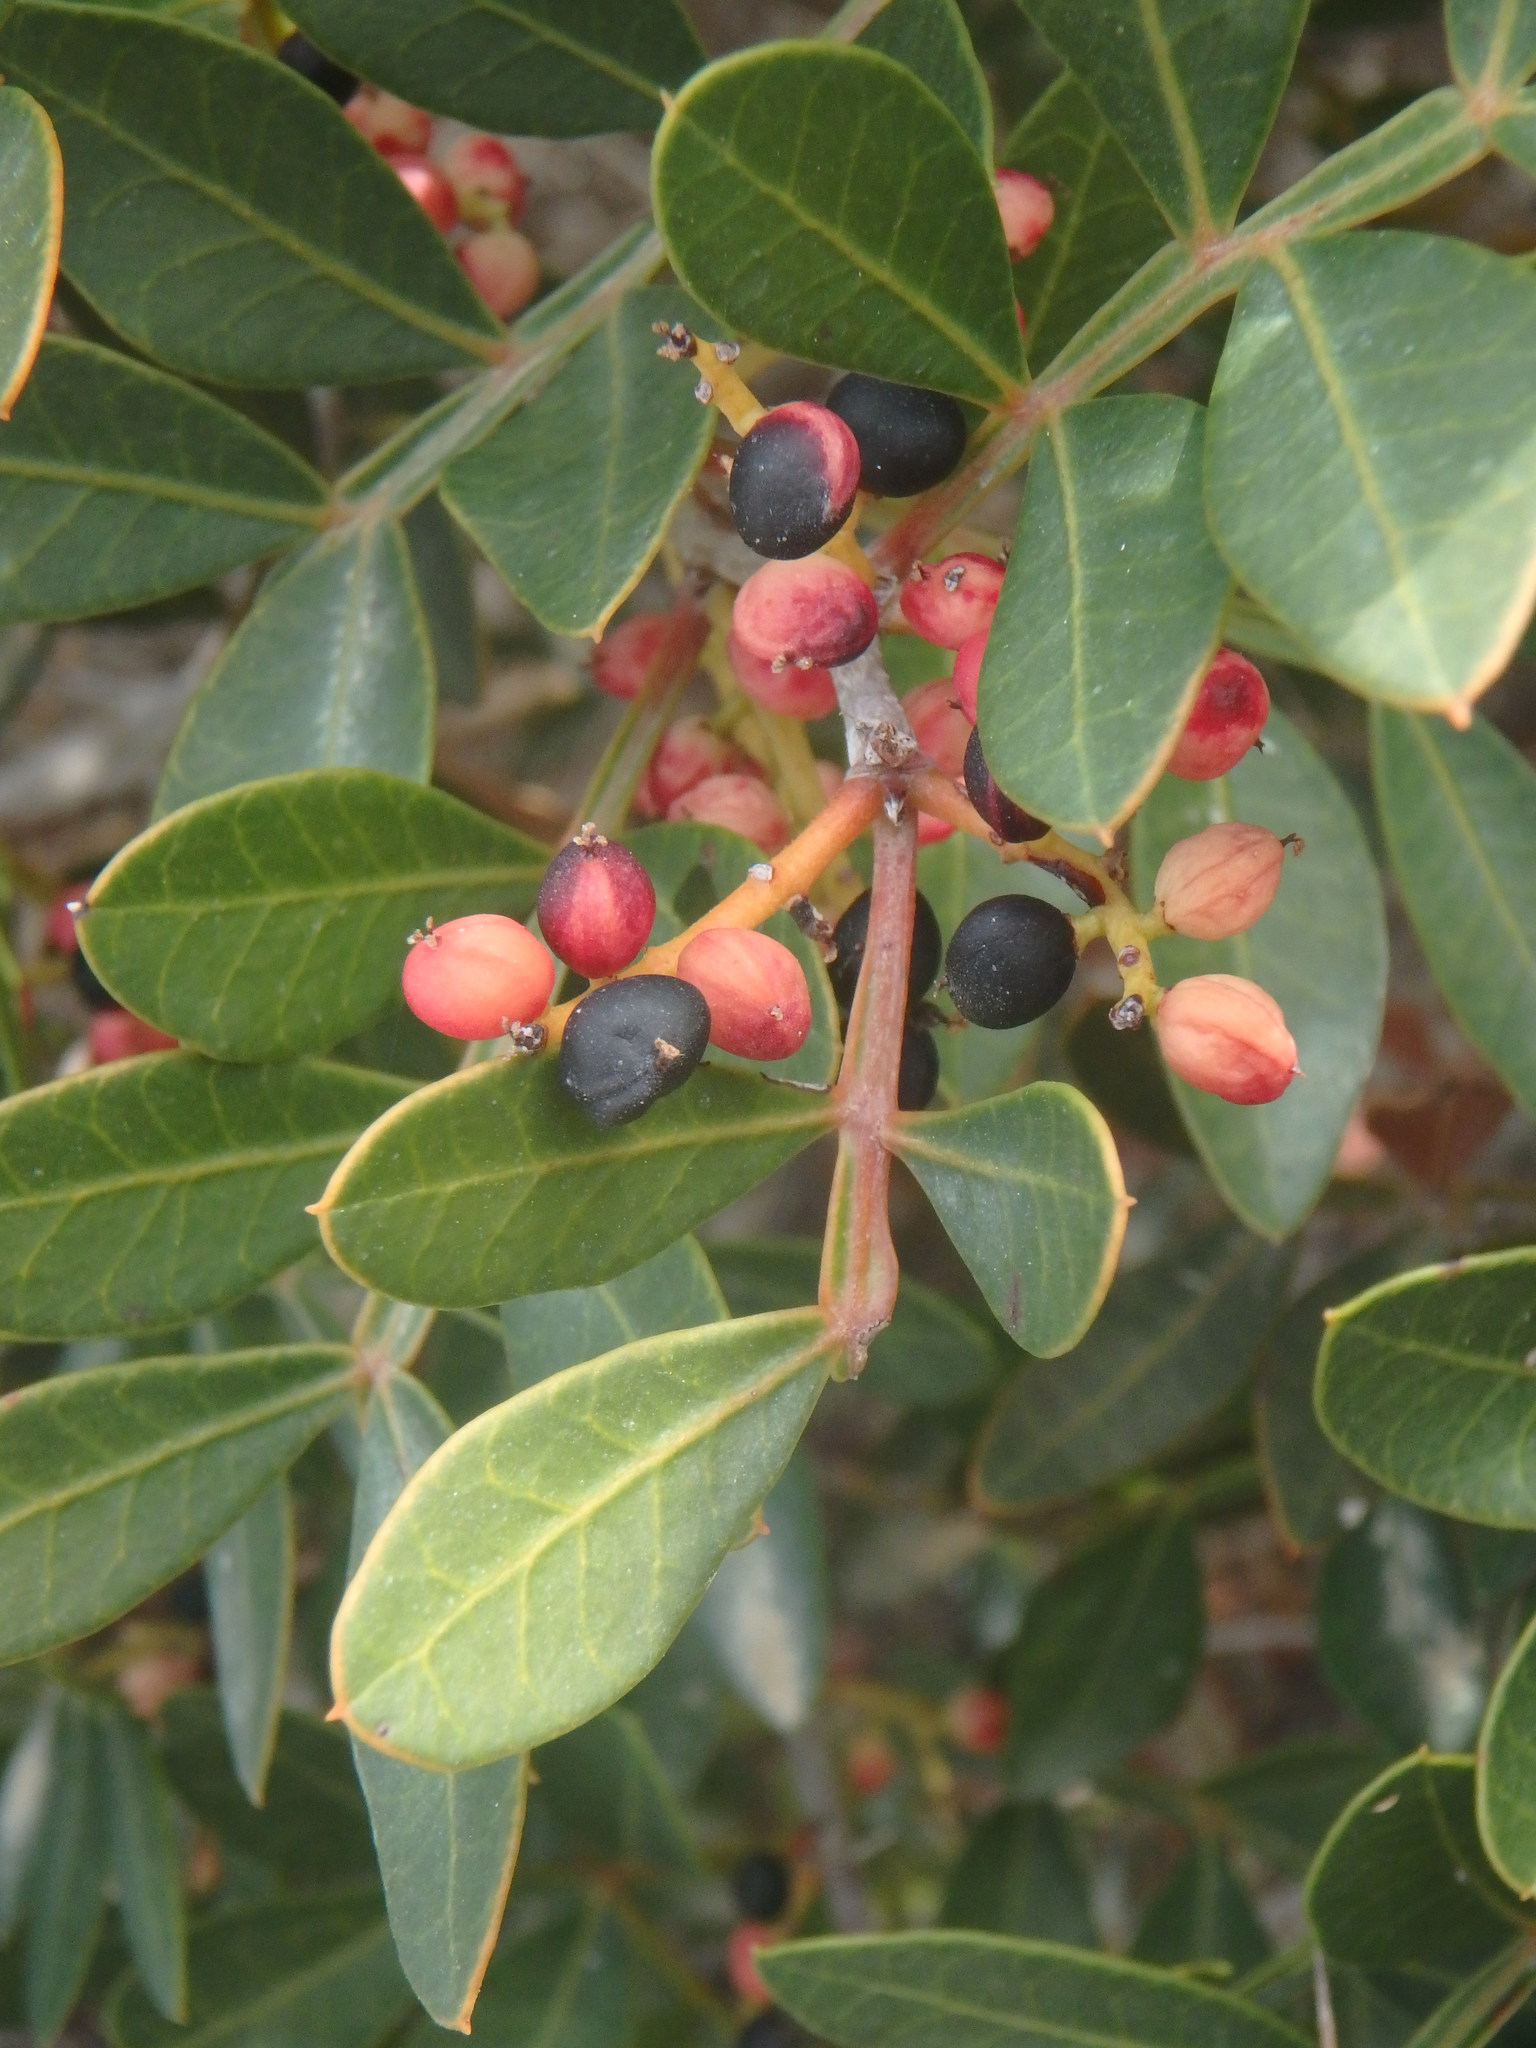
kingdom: Plantae
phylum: Tracheophyta
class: Magnoliopsida
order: Sapindales
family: Anacardiaceae
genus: Pistacia
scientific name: Pistacia lentiscus
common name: Lentisk
